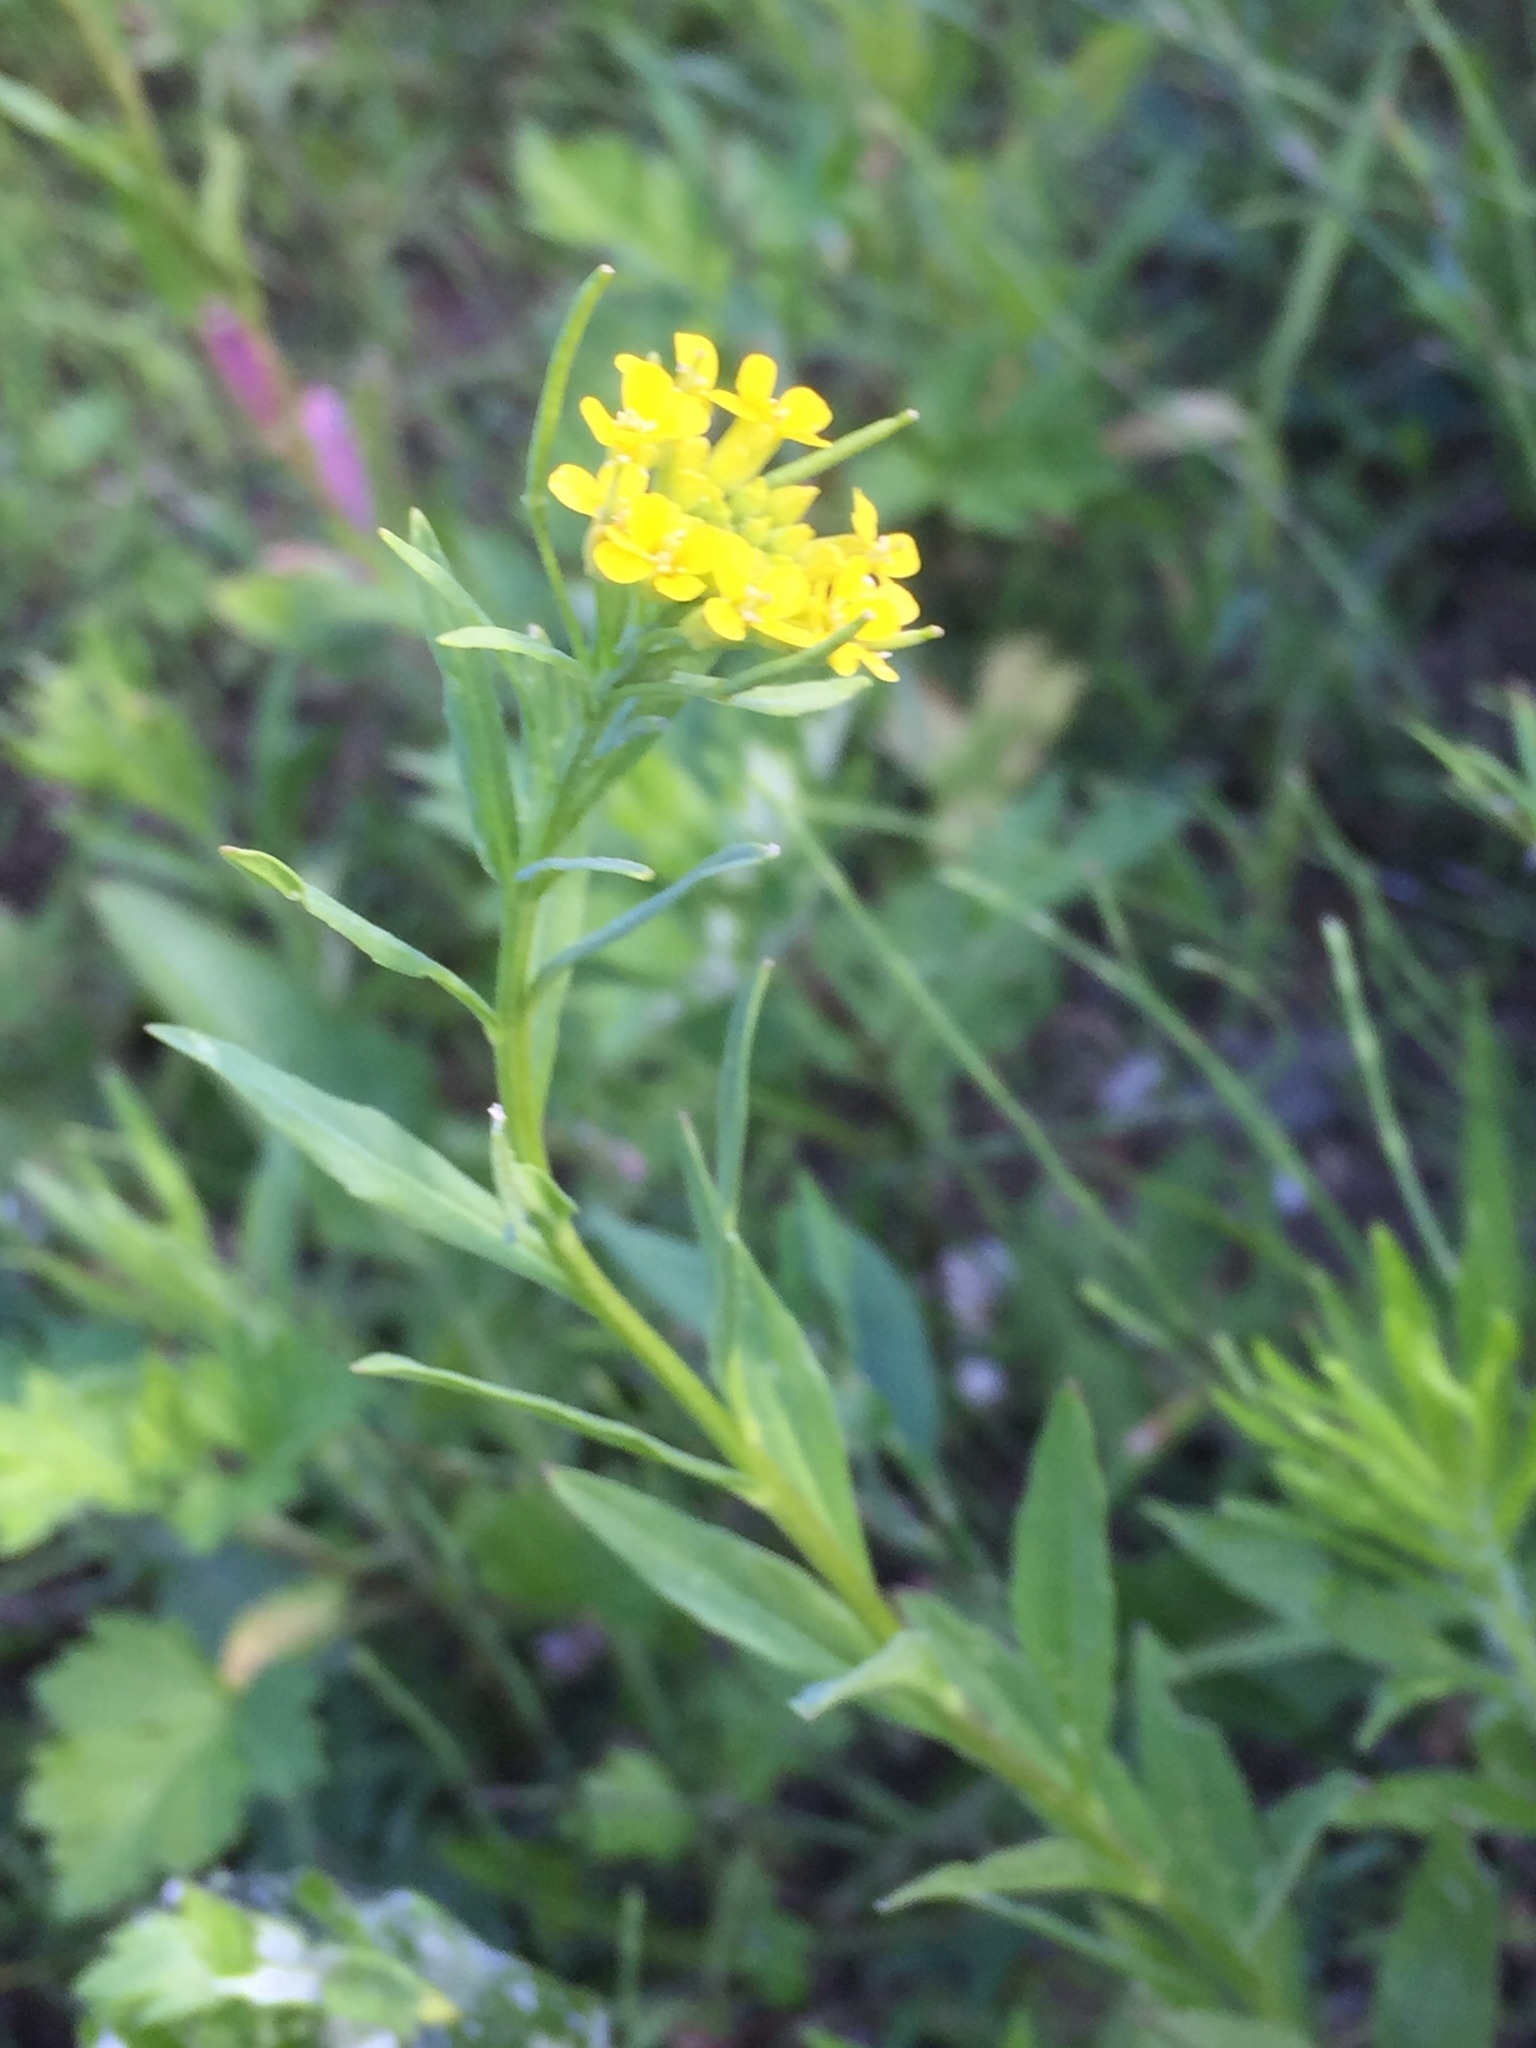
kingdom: Plantae
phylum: Tracheophyta
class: Magnoliopsida
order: Brassicales
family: Brassicaceae
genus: Erysimum
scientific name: Erysimum cheiranthoides
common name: Treacle mustard
